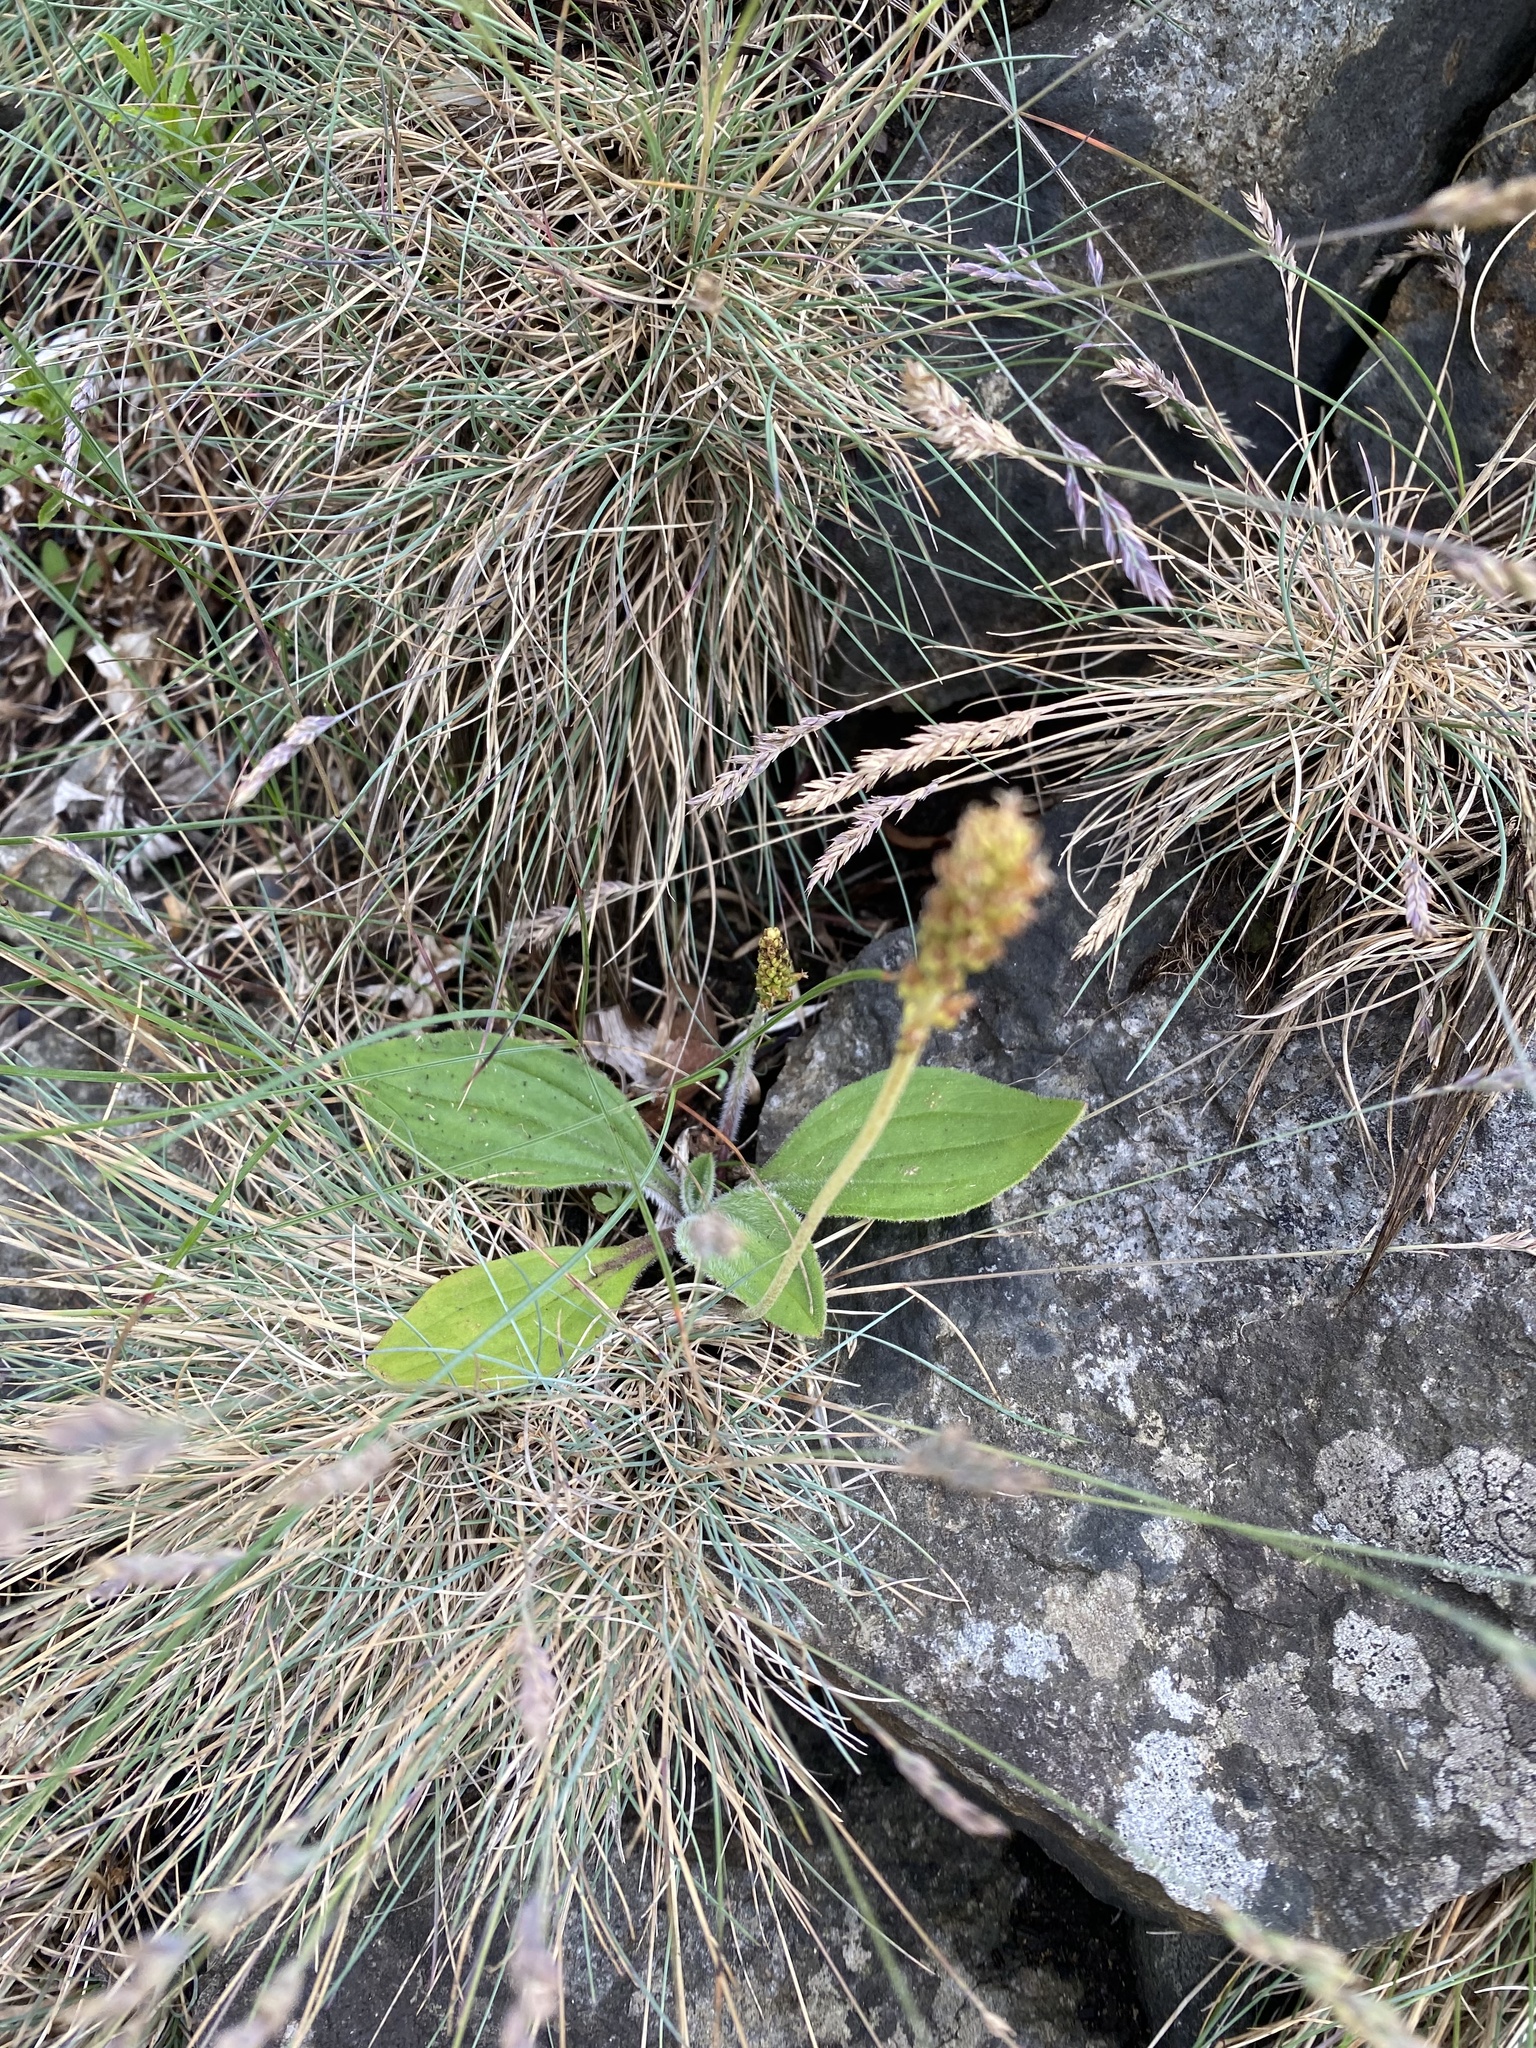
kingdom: Plantae
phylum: Tracheophyta
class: Magnoliopsida
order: Lamiales
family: Plantaginaceae
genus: Plantago
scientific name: Plantago camtschatica
